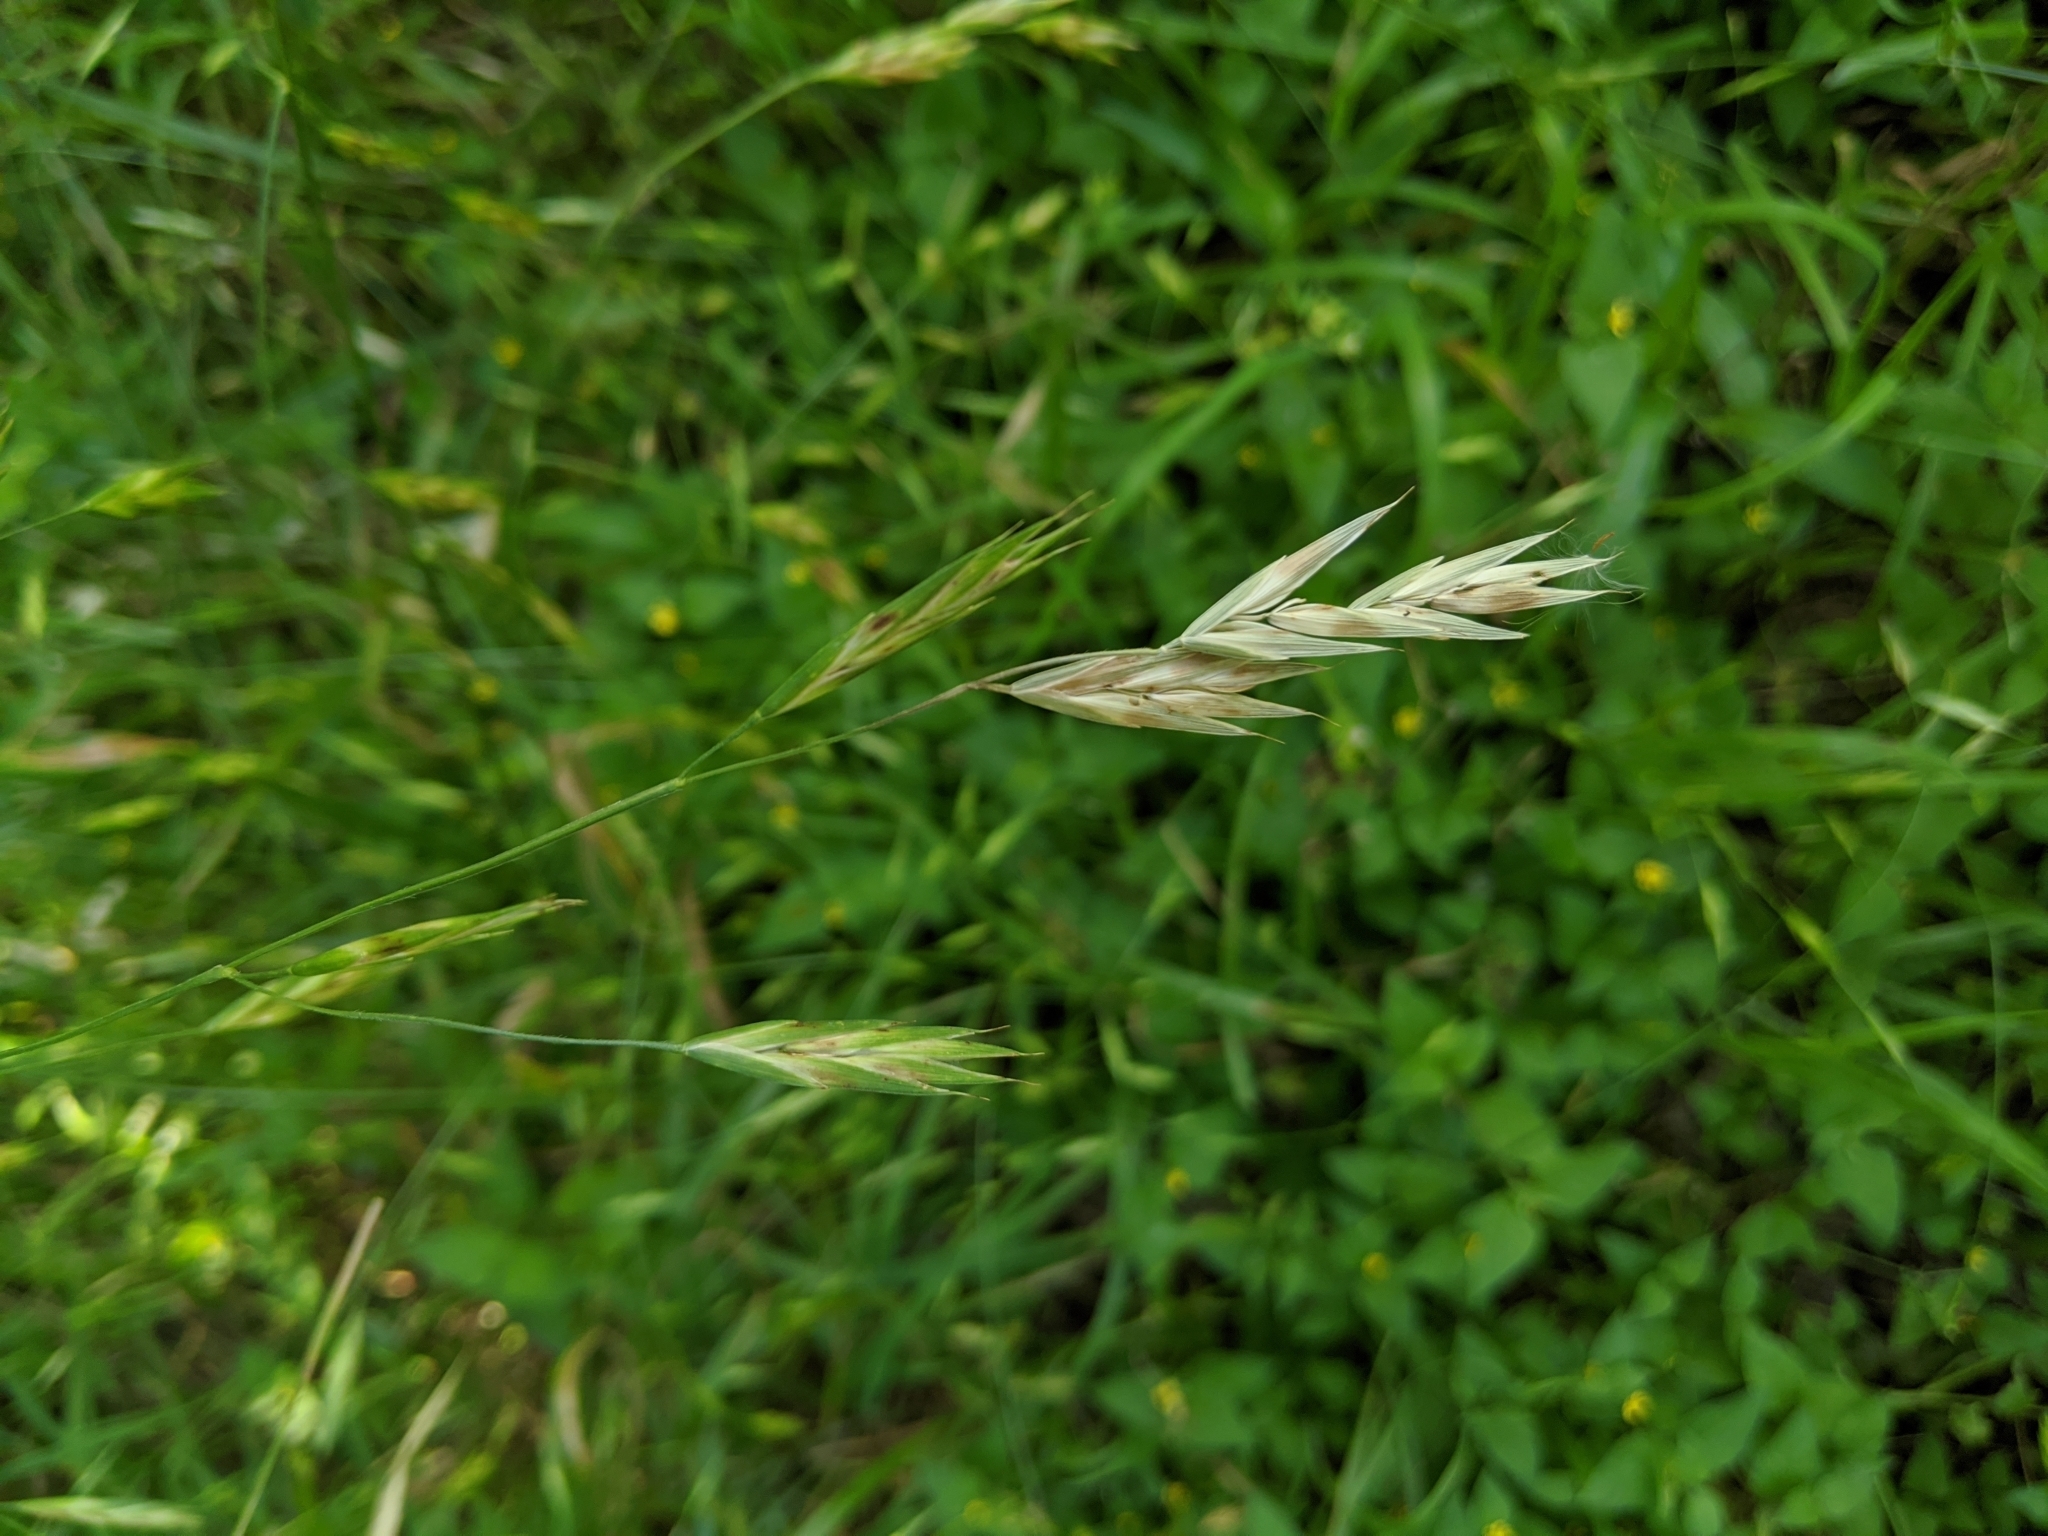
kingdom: Plantae
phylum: Tracheophyta
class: Liliopsida
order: Poales
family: Poaceae
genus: Bromus
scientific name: Bromus catharticus
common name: Rescuegrass
